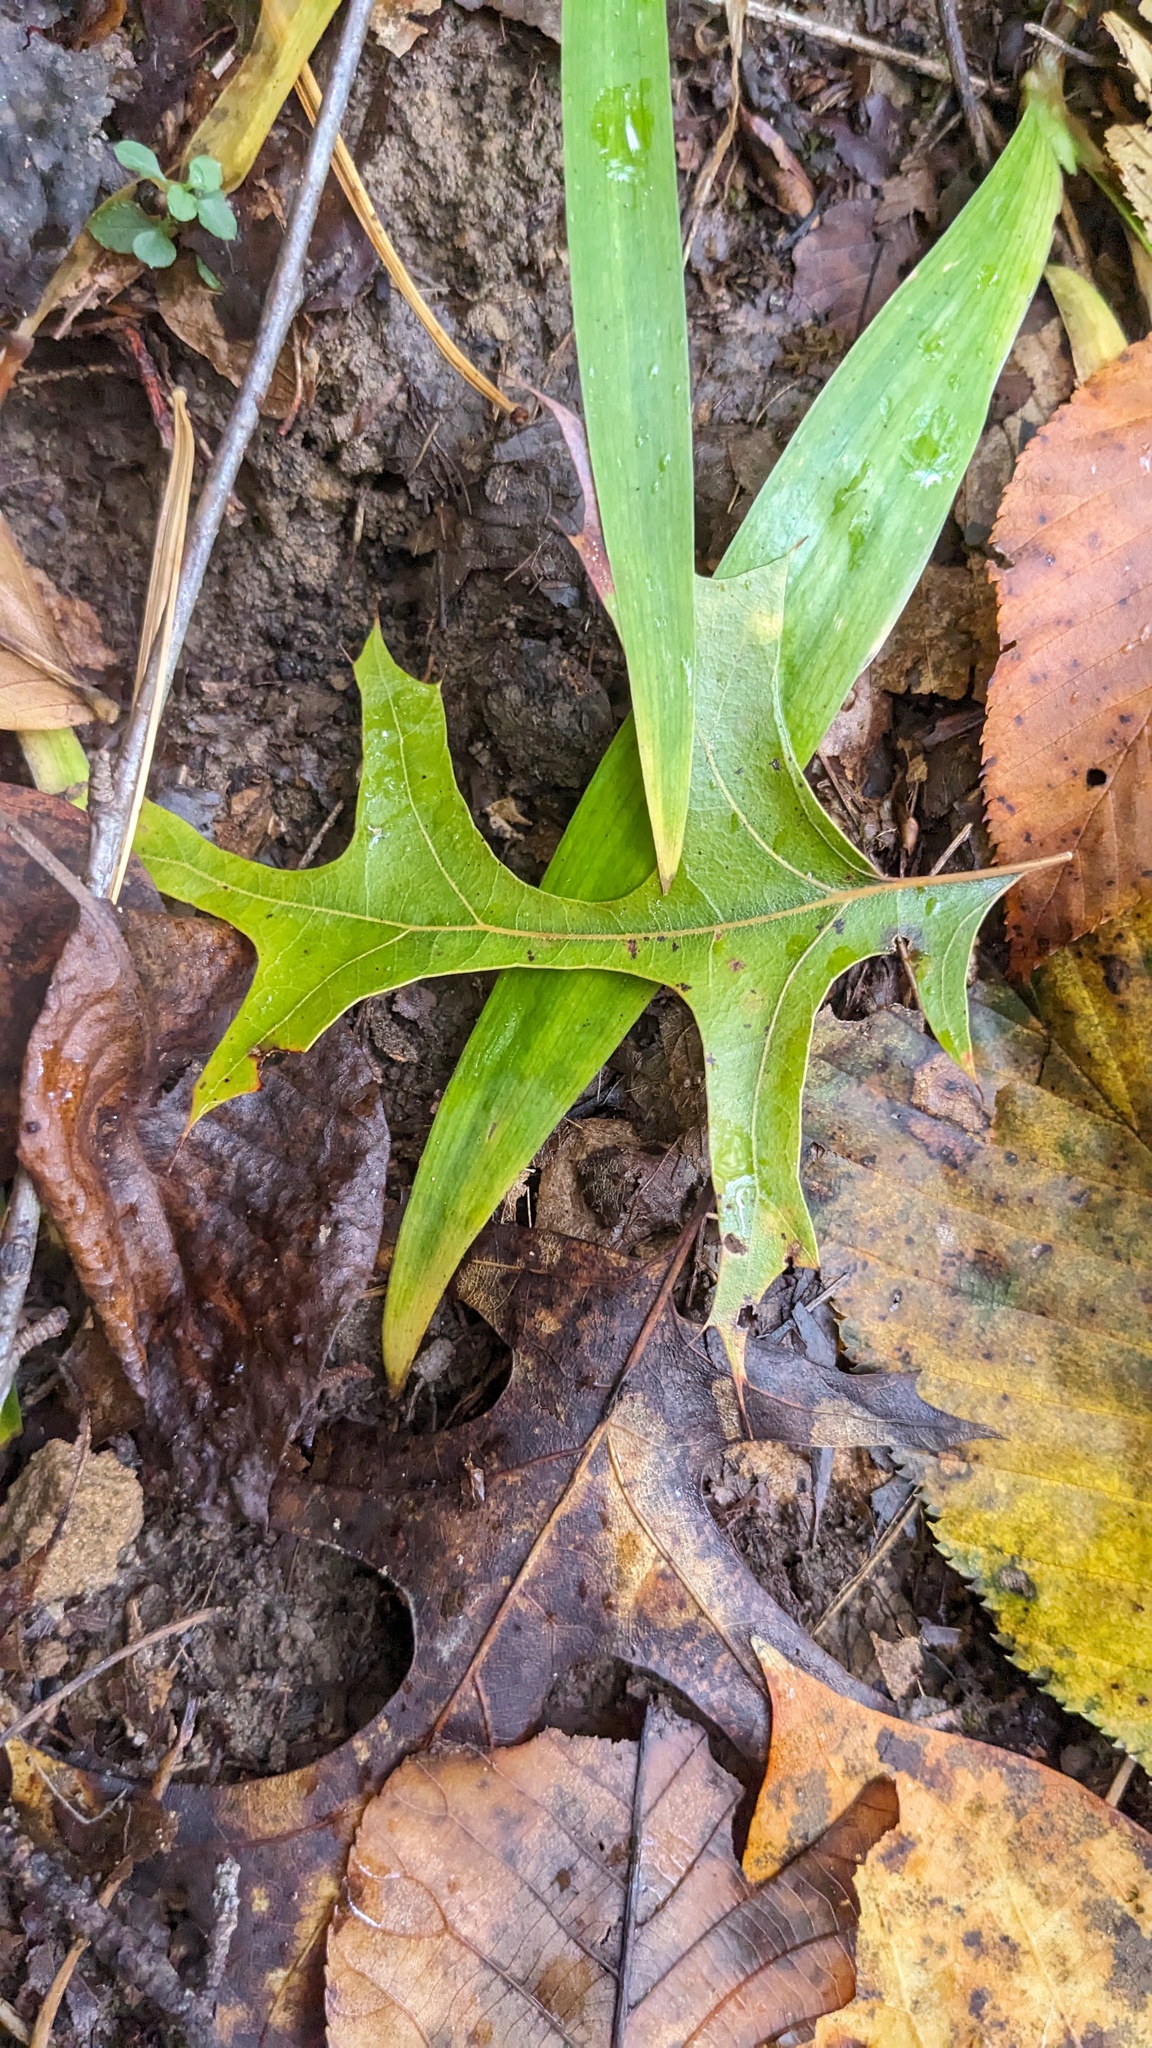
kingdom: Plantae
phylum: Tracheophyta
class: Magnoliopsida
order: Fagales
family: Fagaceae
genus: Quercus
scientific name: Quercus palustris
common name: Pin oak
